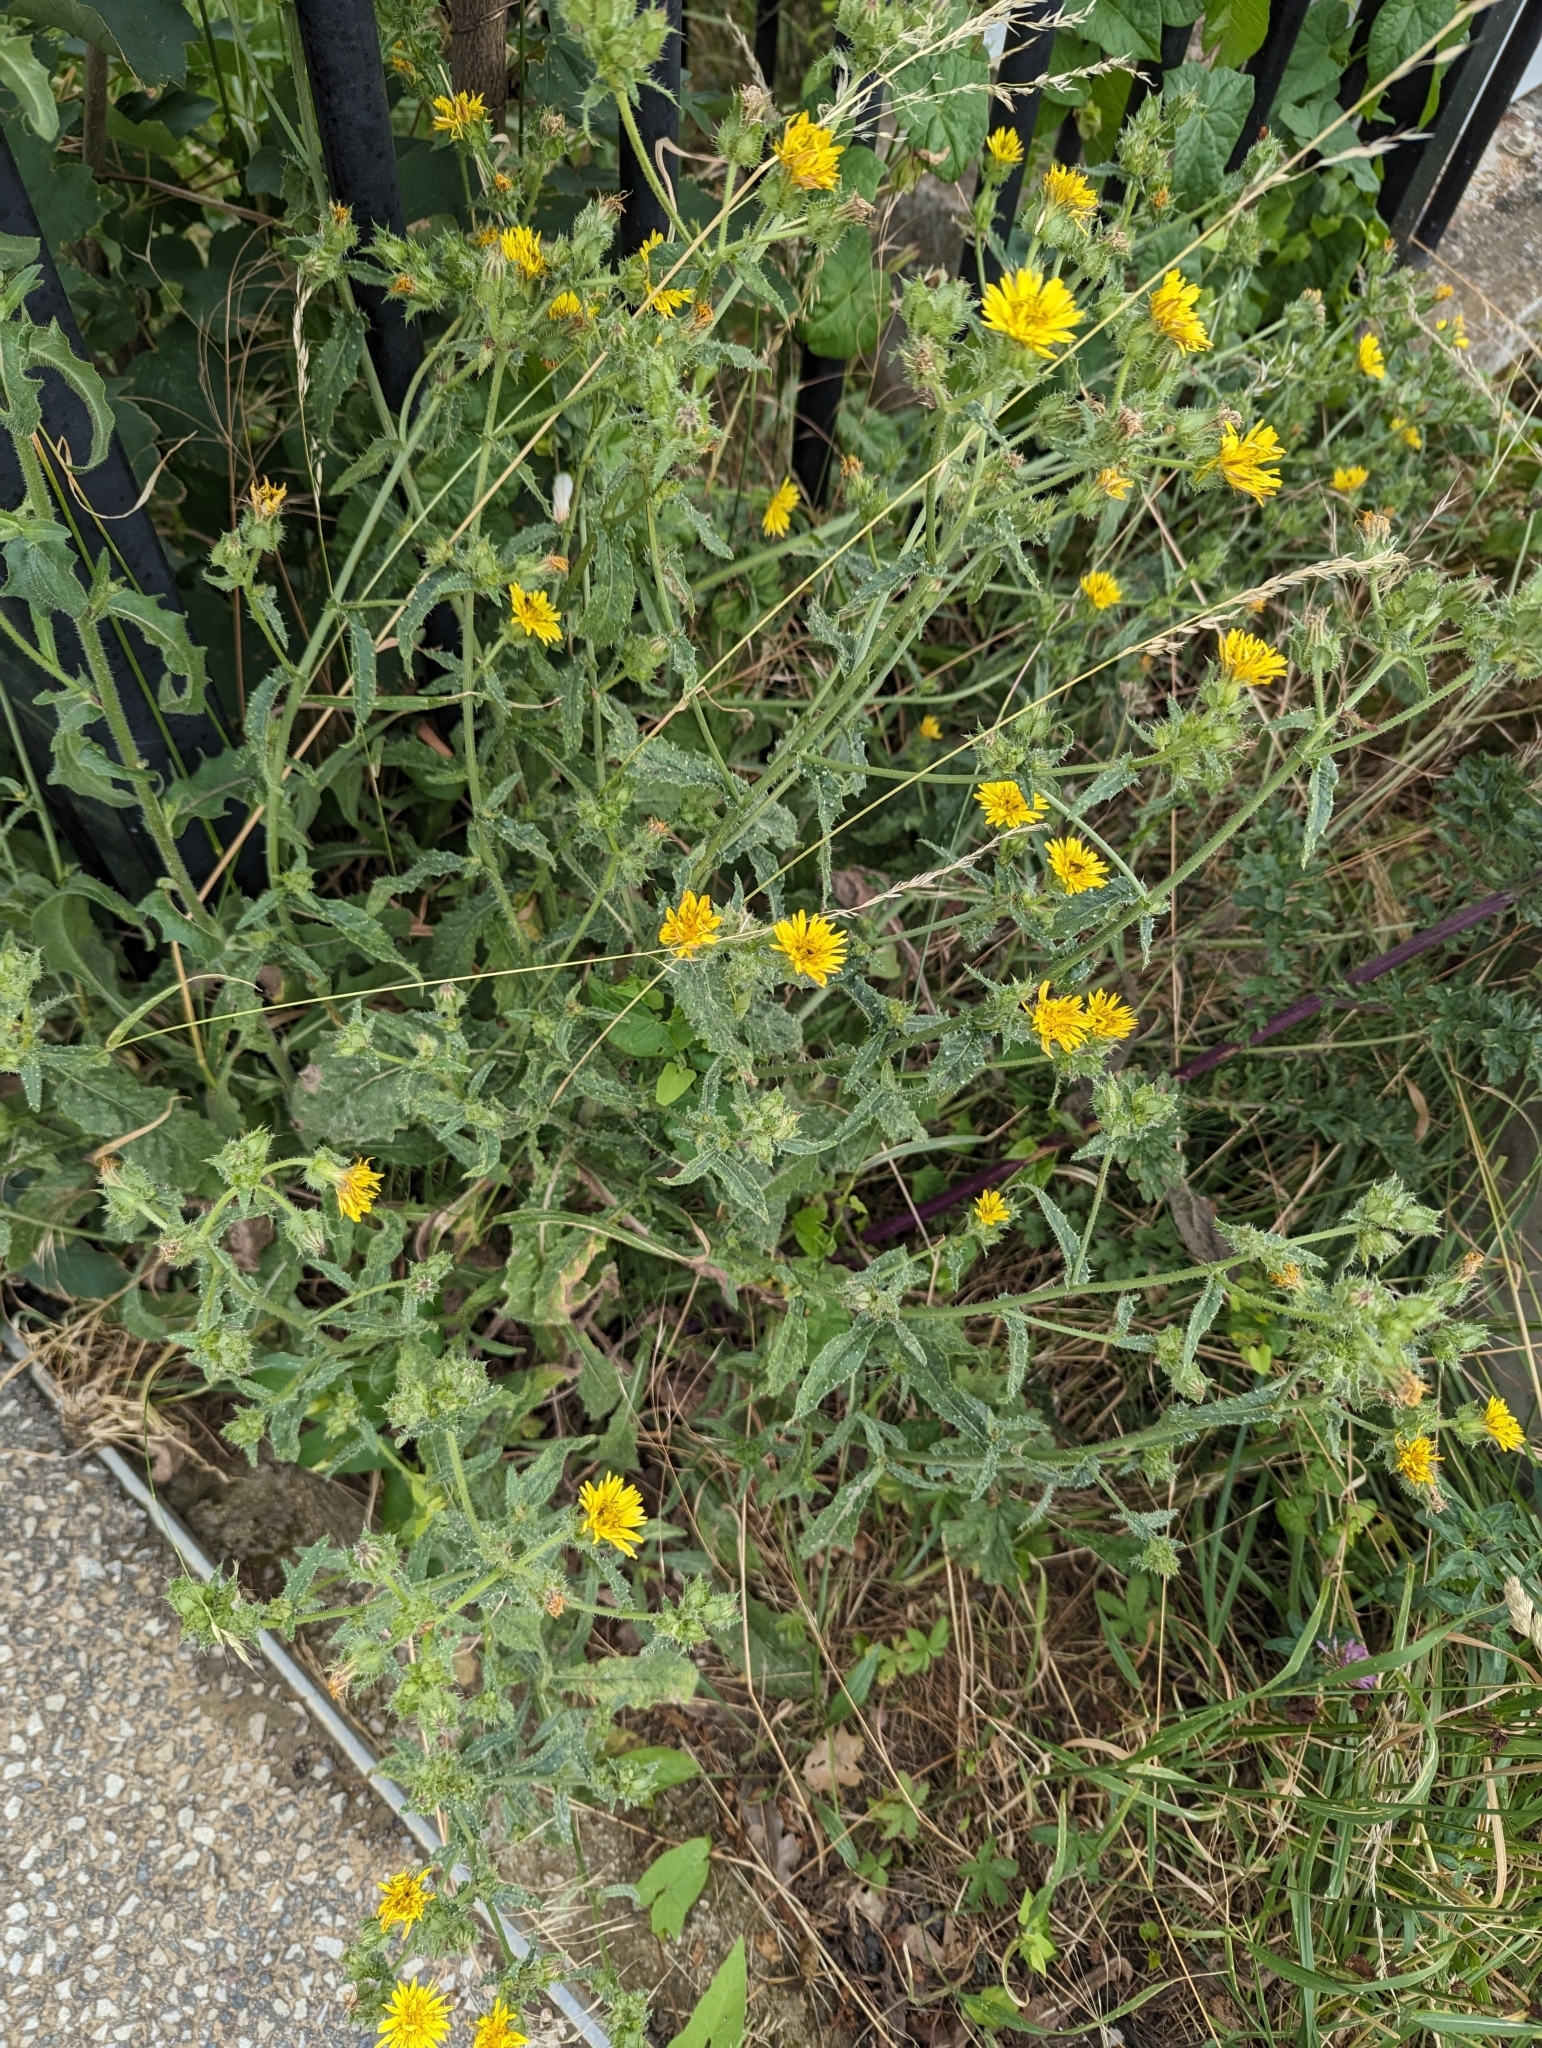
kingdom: Plantae
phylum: Tracheophyta
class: Magnoliopsida
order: Asterales
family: Asteraceae
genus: Helminthotheca
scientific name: Helminthotheca echioides
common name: Ox-tongue
